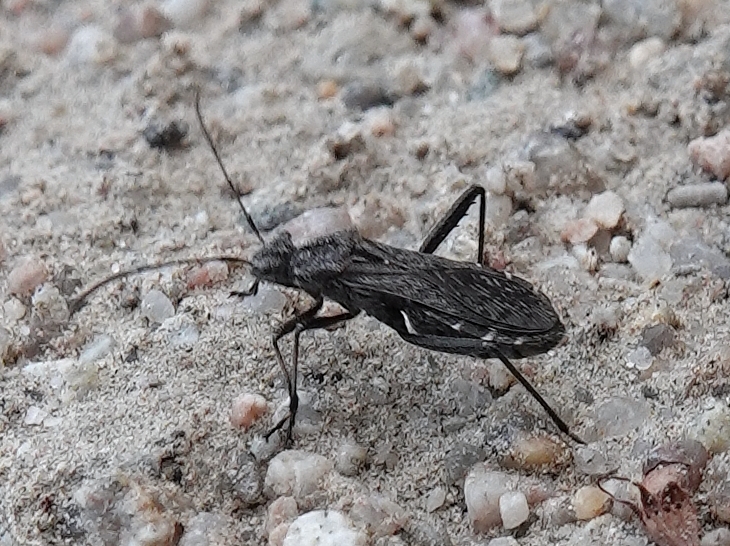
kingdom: Animalia
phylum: Arthropoda
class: Insecta
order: Hemiptera
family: Alydidae
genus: Alydus
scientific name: Alydus conspersus
